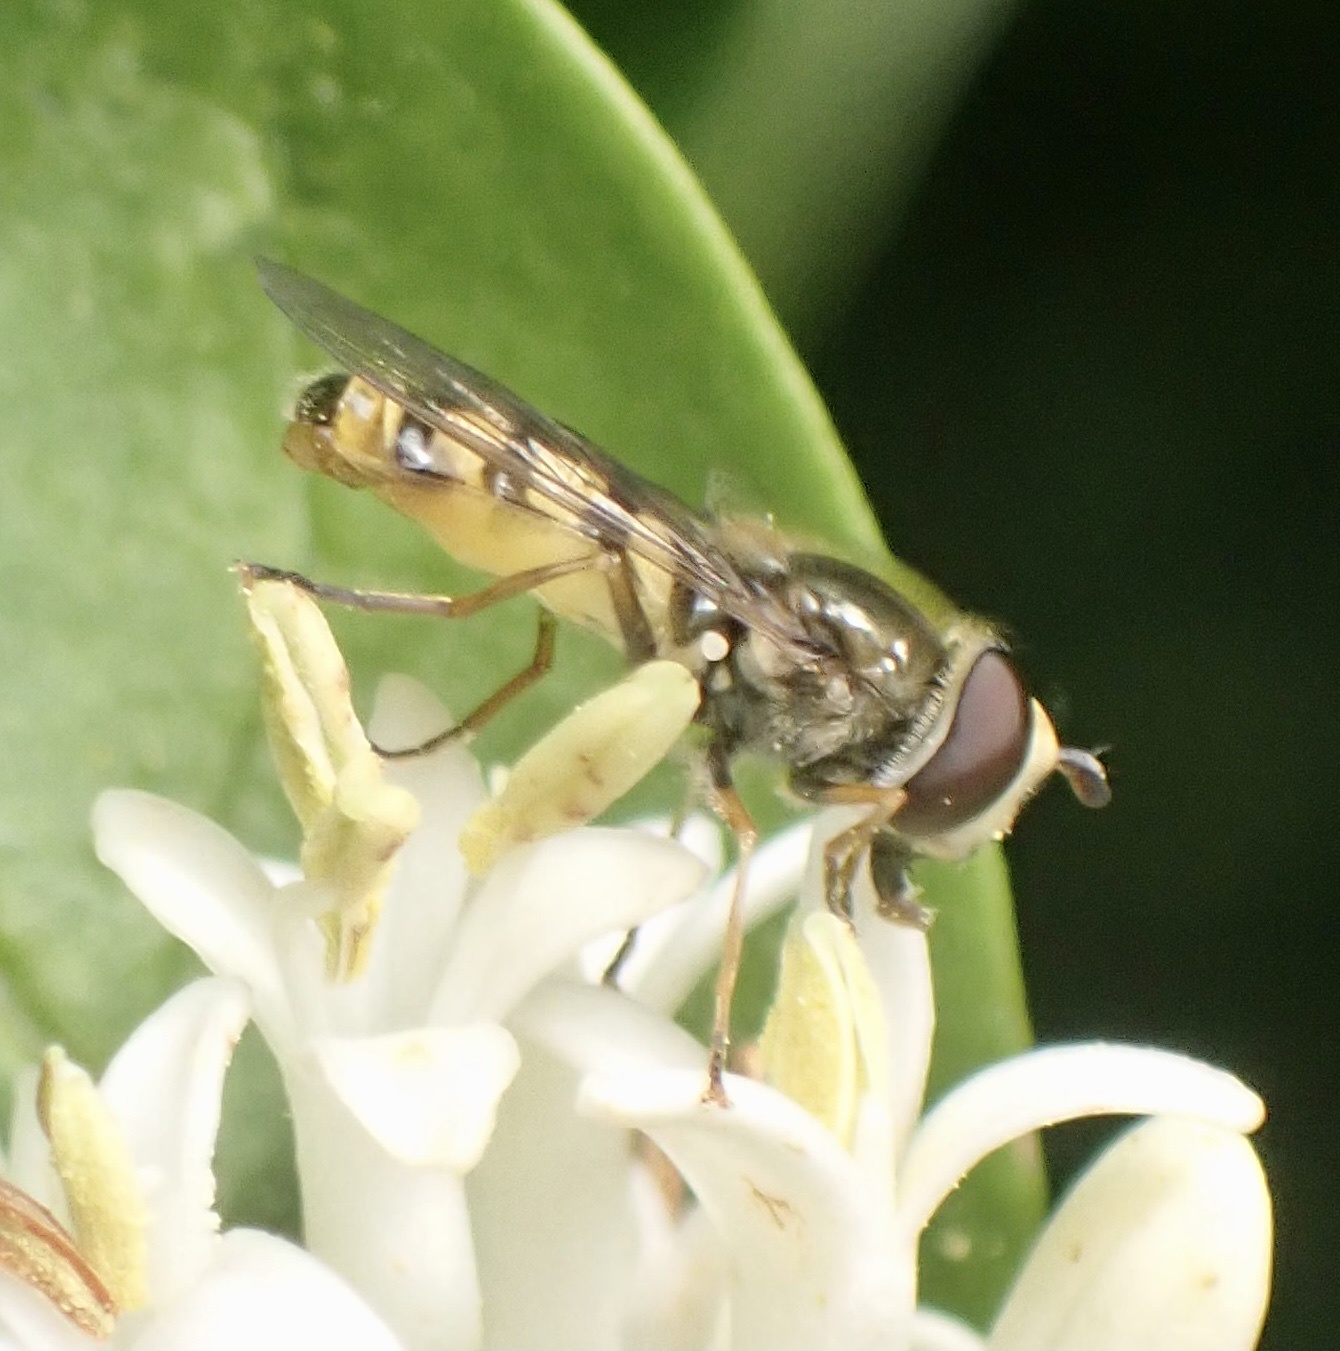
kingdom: Animalia
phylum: Arthropoda
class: Insecta
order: Diptera
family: Syrphidae
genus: Eupeodes
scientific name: Eupeodes corollae
